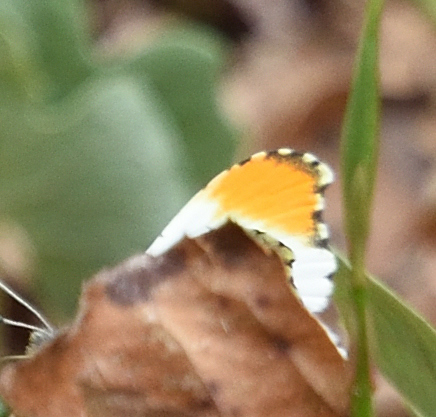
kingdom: Animalia
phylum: Arthropoda
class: Insecta
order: Lepidoptera
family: Pieridae
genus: Anthocharis
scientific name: Anthocharis midea
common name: Falcate orangetip
